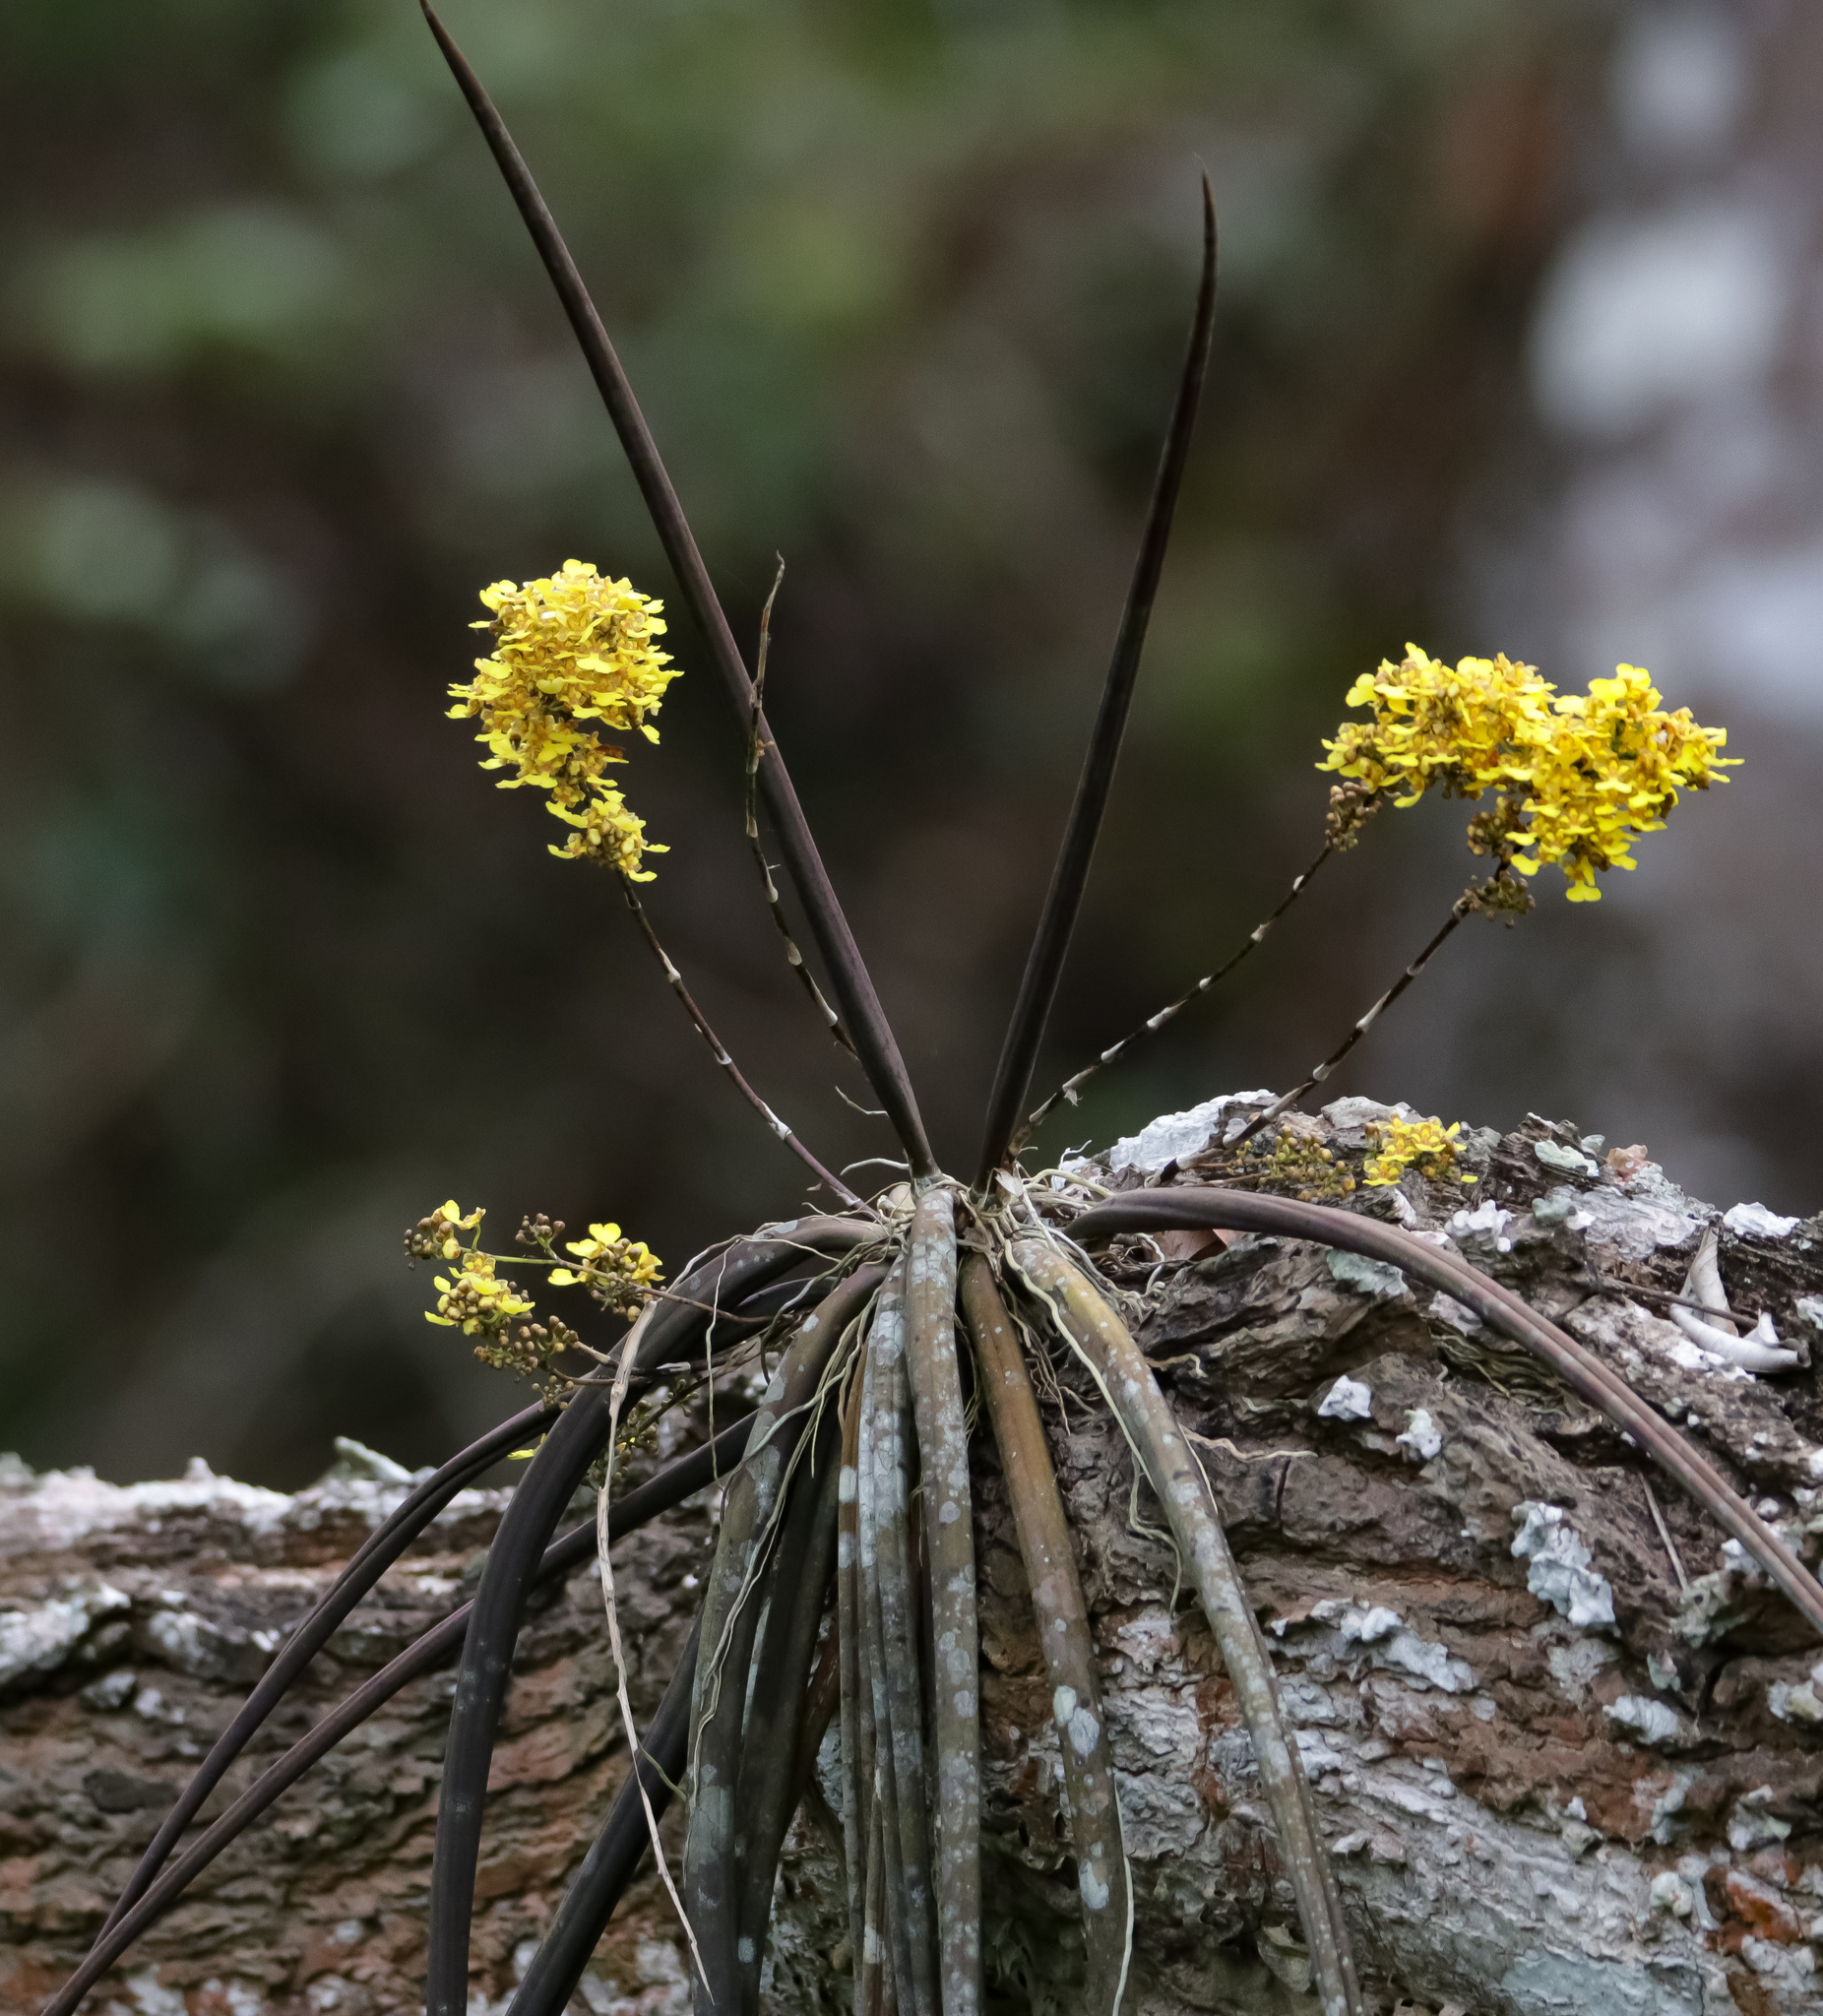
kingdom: Plantae
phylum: Tracheophyta
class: Liliopsida
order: Asparagales
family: Orchidaceae
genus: Trichocentrum
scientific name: Trichocentrum cebolleta
